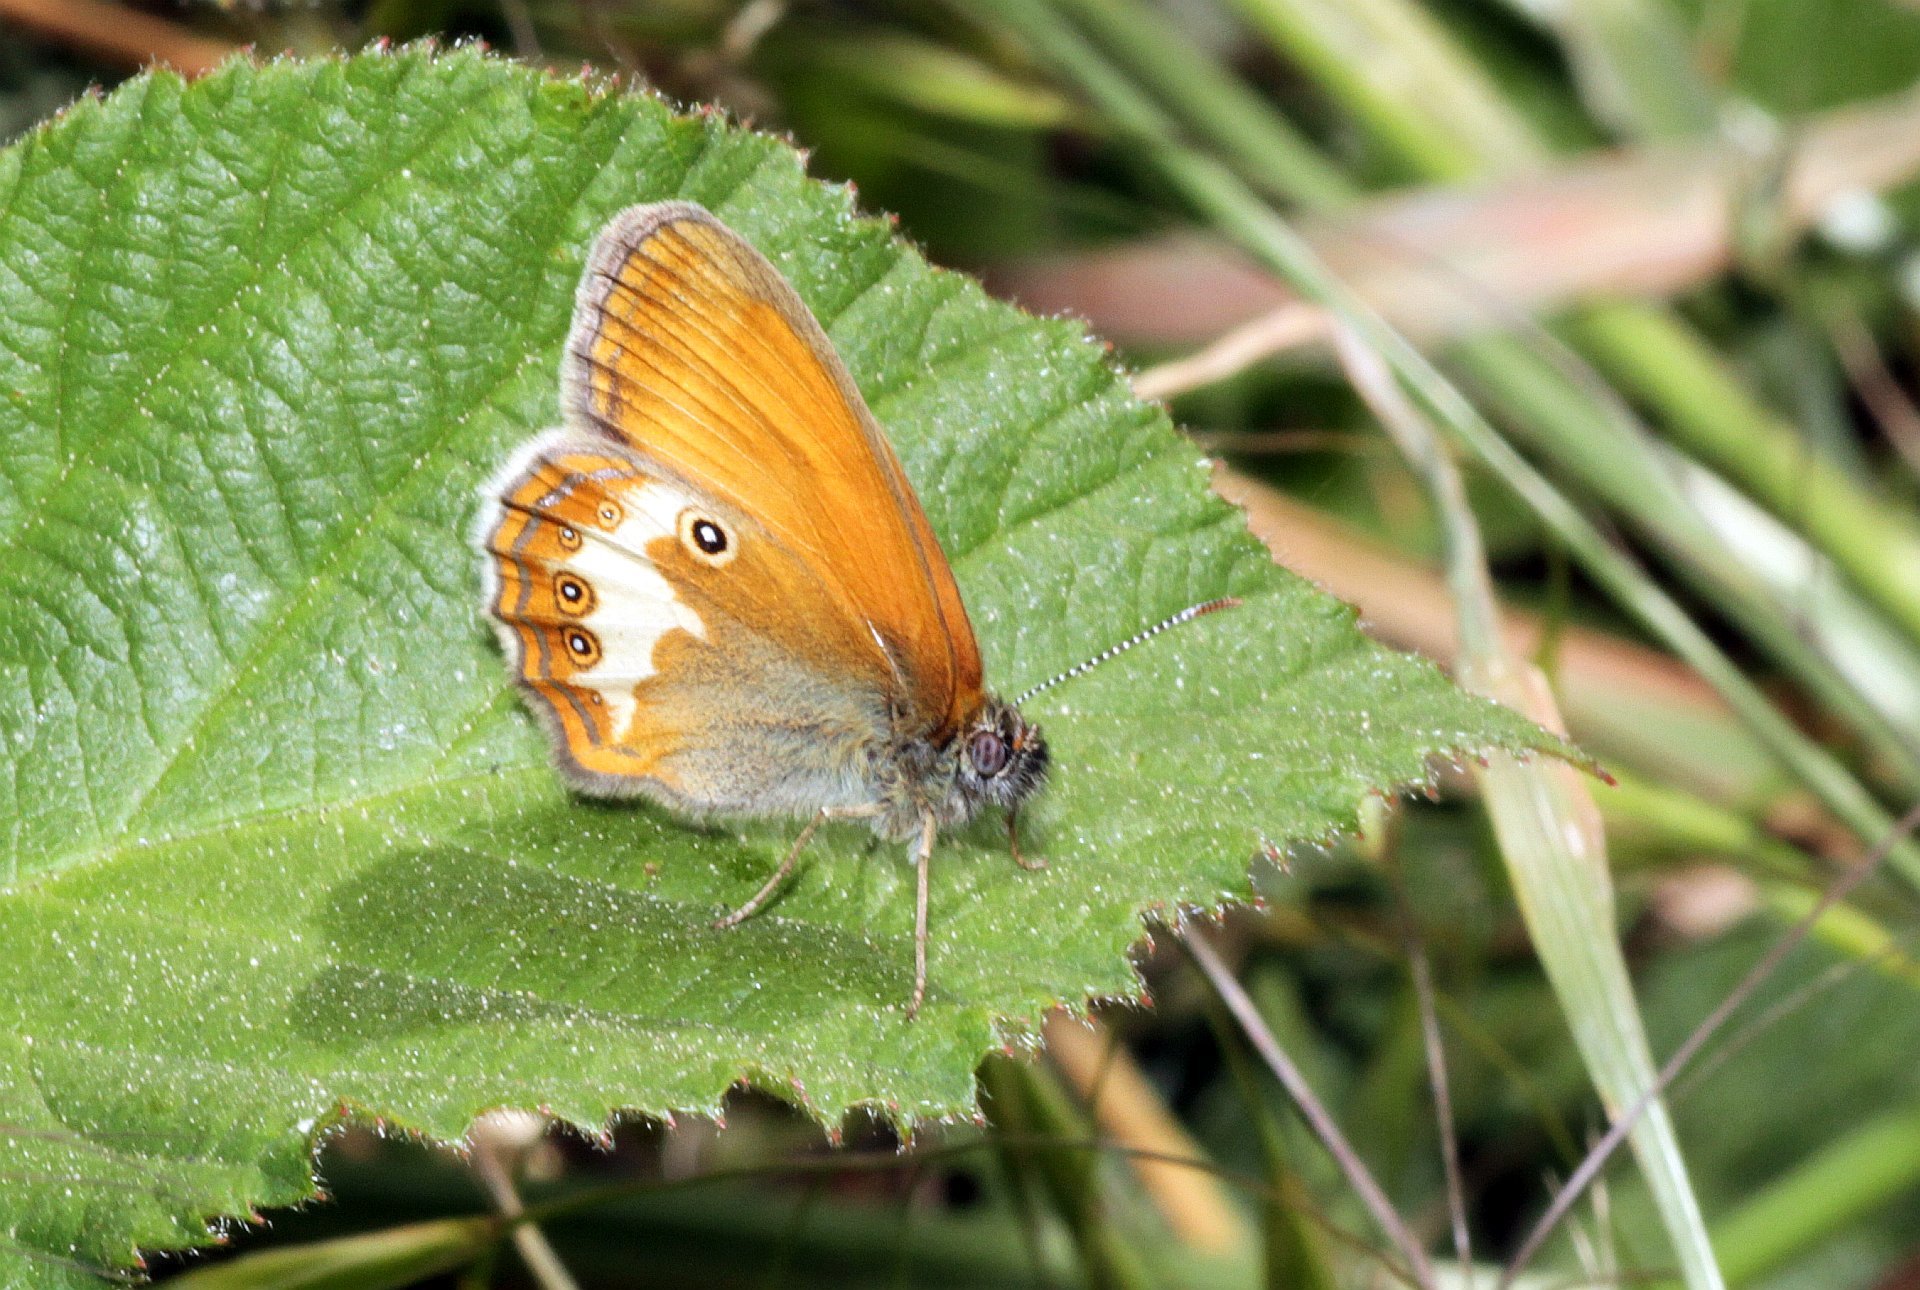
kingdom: Animalia
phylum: Arthropoda
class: Insecta
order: Lepidoptera
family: Nymphalidae
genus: Coenonympha
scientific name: Coenonympha arcania
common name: Pearly heath
